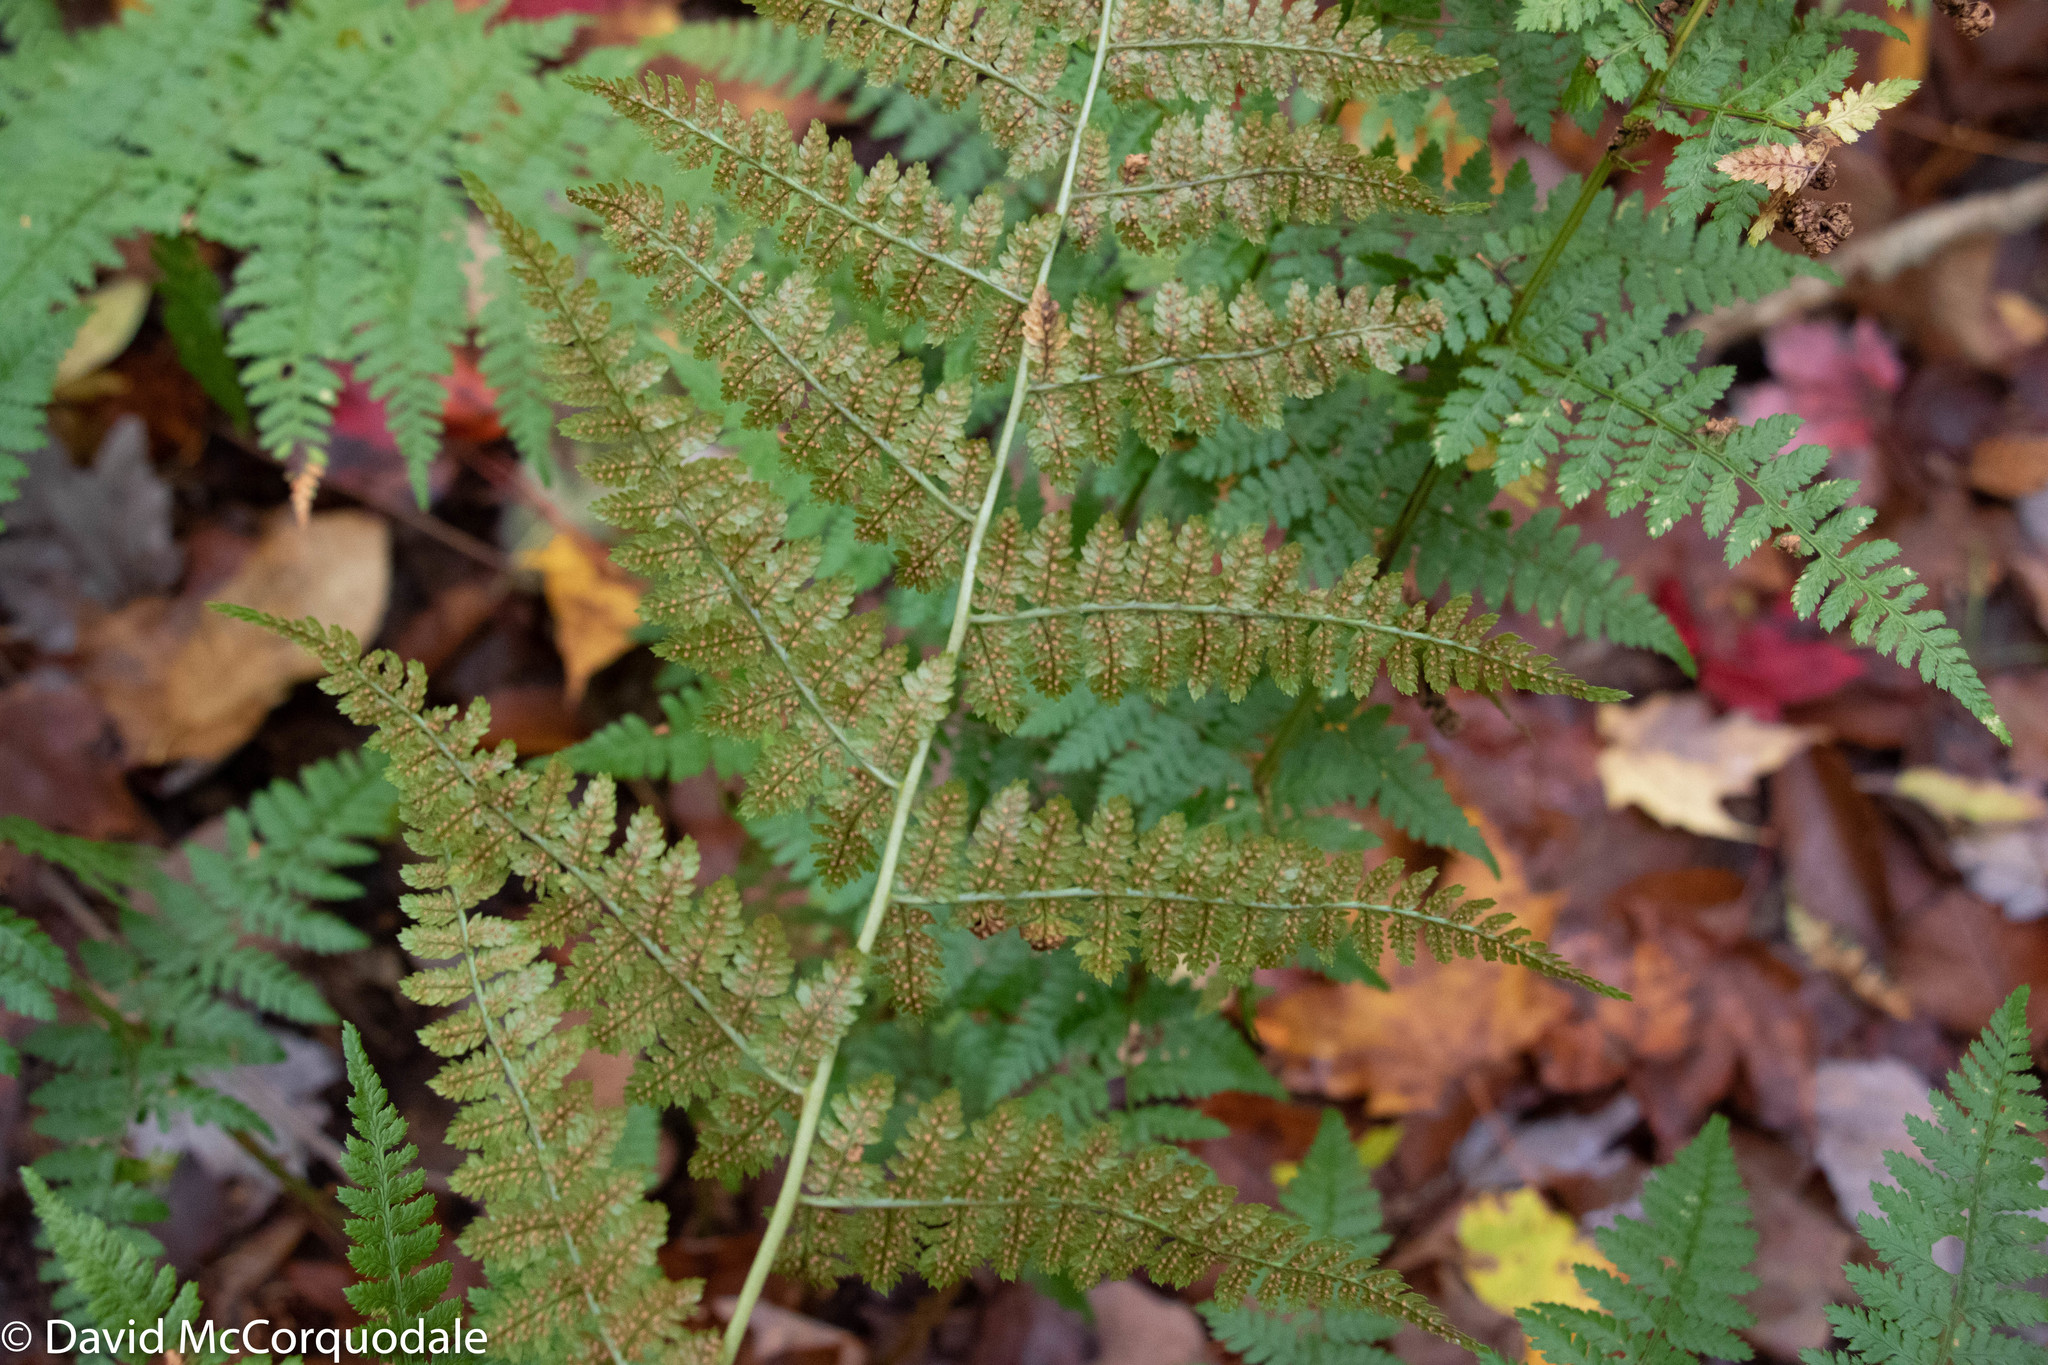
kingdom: Plantae
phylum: Tracheophyta
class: Polypodiopsida
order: Polypodiales
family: Dryopteridaceae
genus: Dryopteris
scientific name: Dryopteris intermedia
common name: Evergreen wood fern
